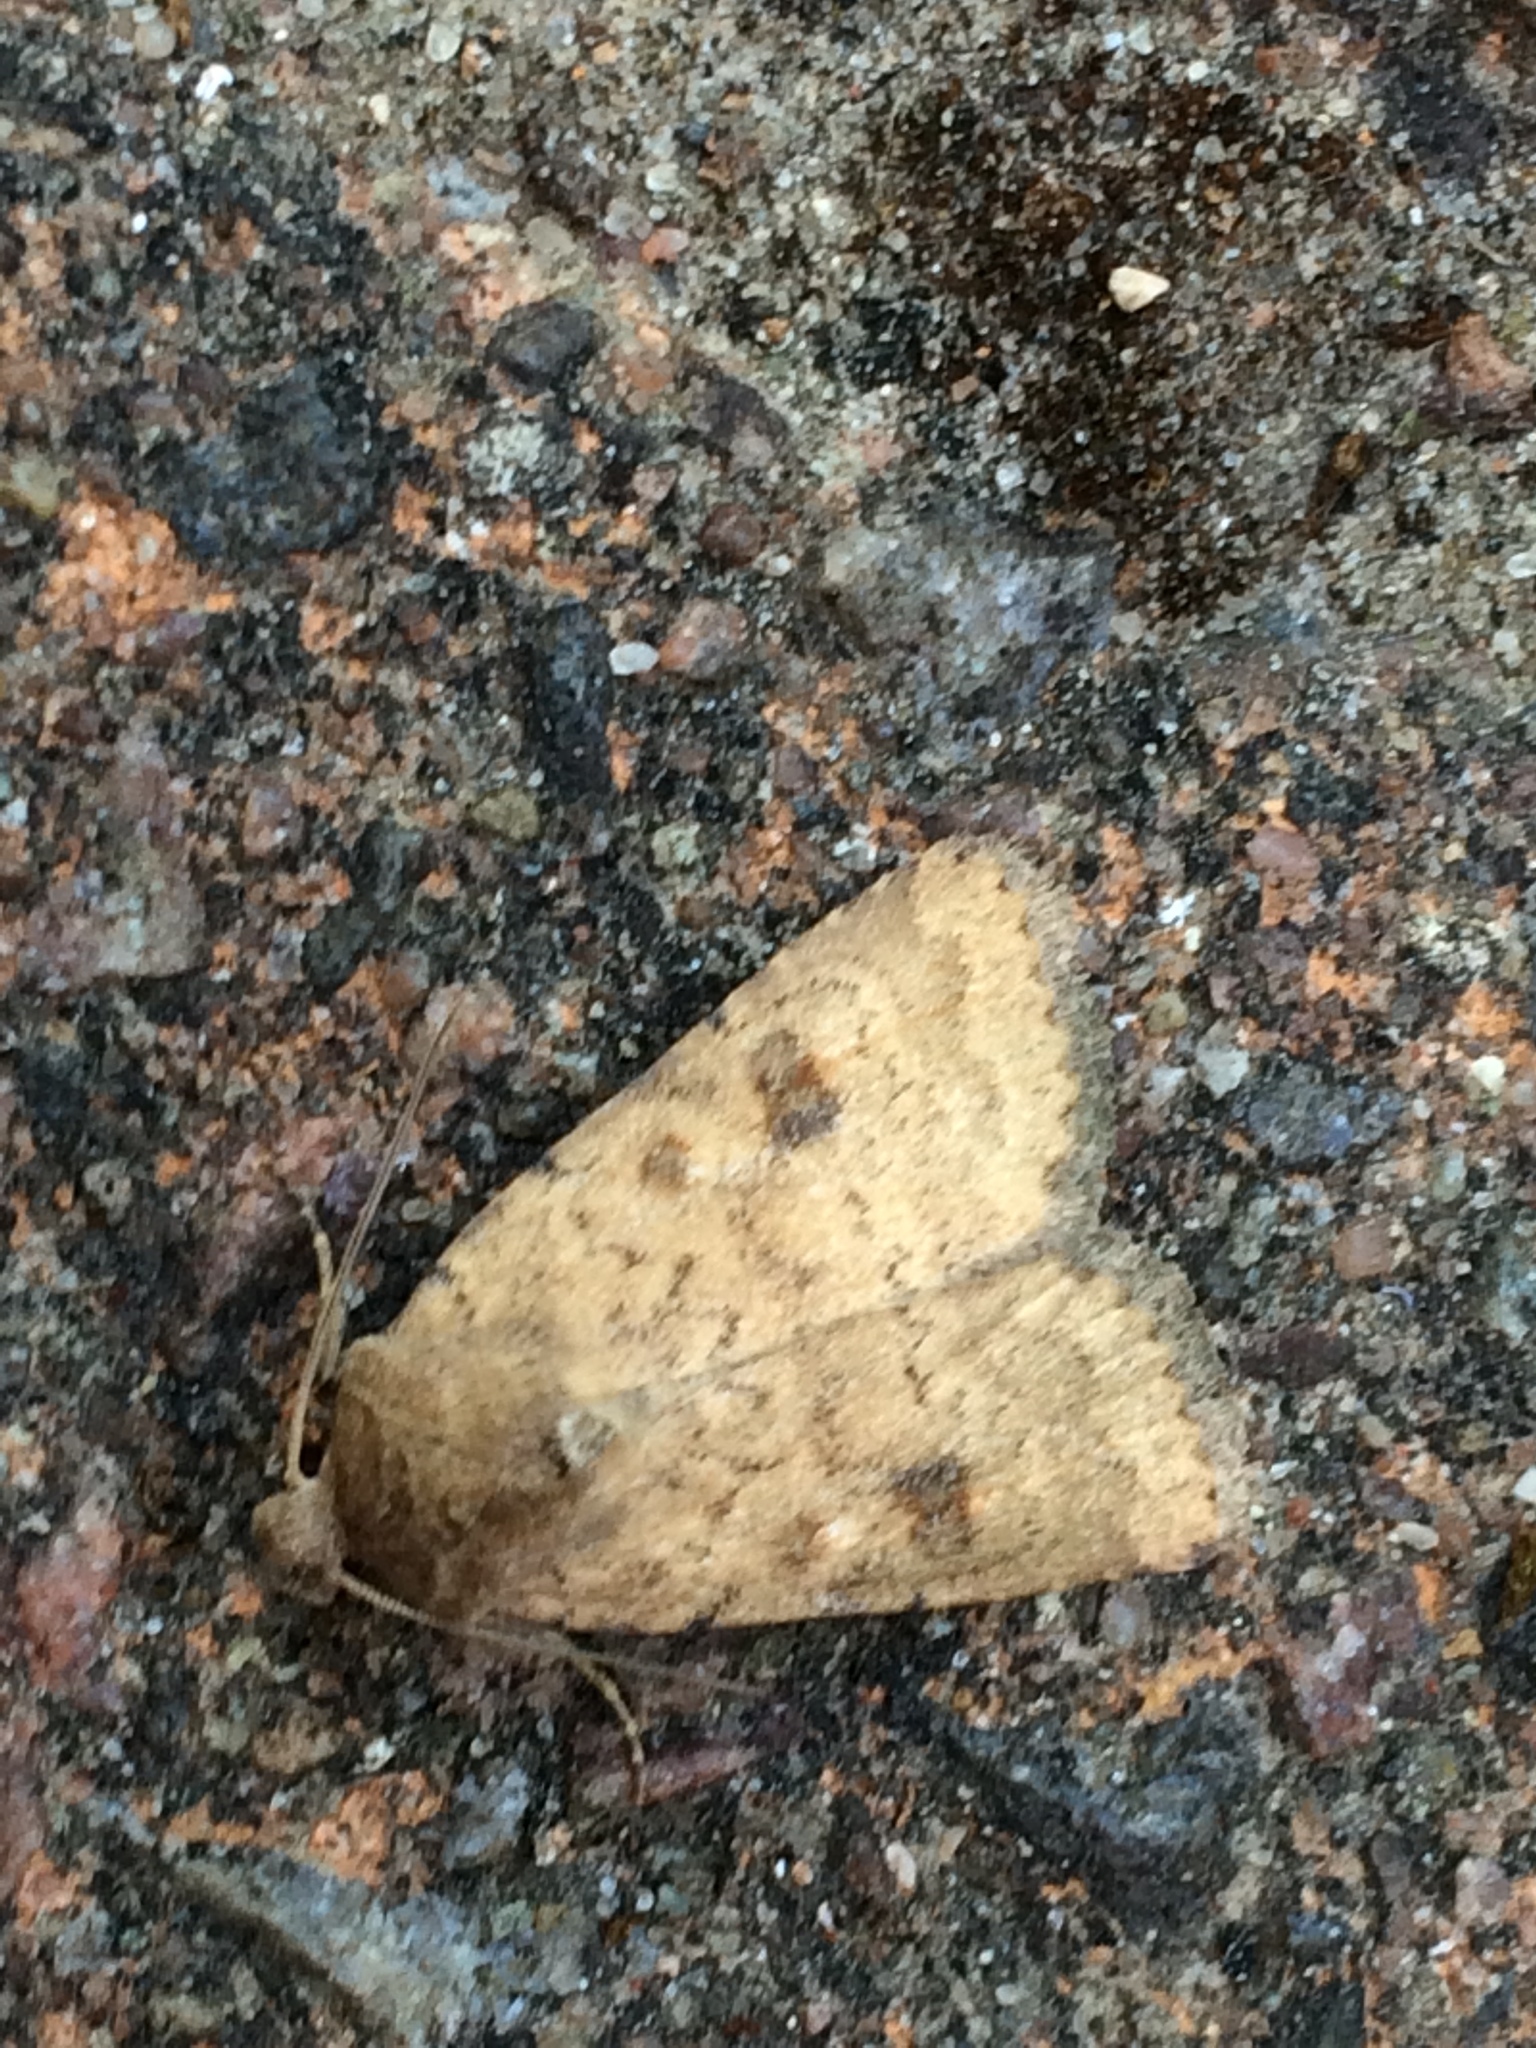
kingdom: Animalia
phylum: Arthropoda
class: Insecta
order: Lepidoptera
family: Noctuidae
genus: Caradrina
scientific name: Caradrina morpheus
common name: Mottled rustic
